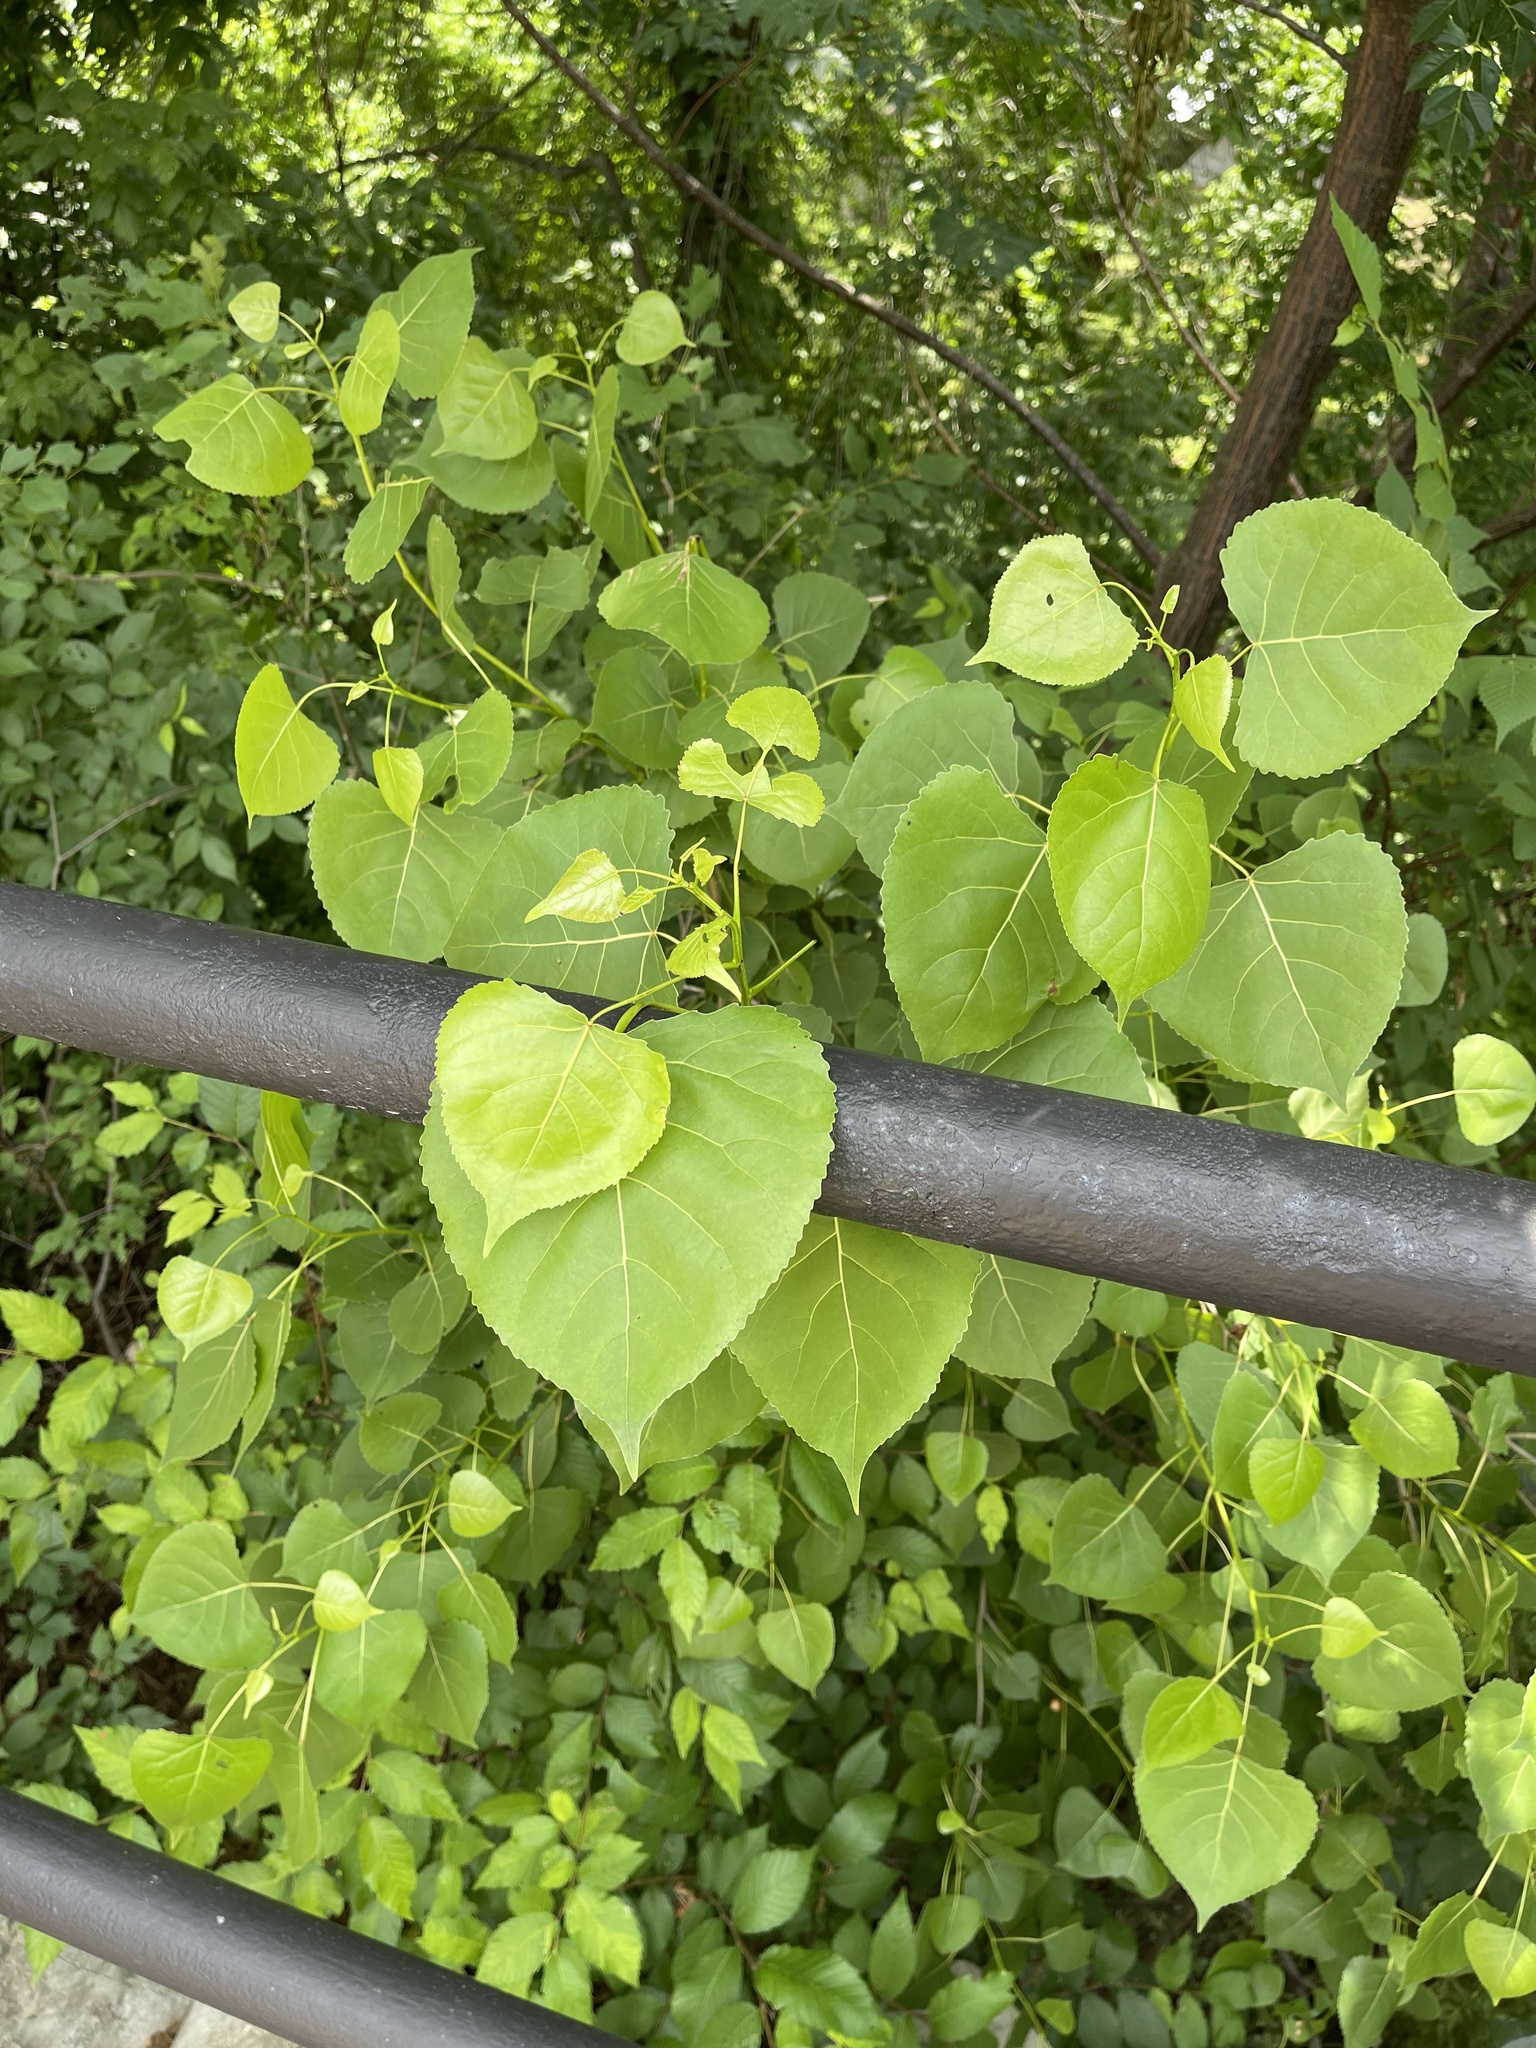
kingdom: Plantae
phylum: Tracheophyta
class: Magnoliopsida
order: Malpighiales
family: Salicaceae
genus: Populus
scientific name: Populus deltoides
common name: Eastern cottonwood
